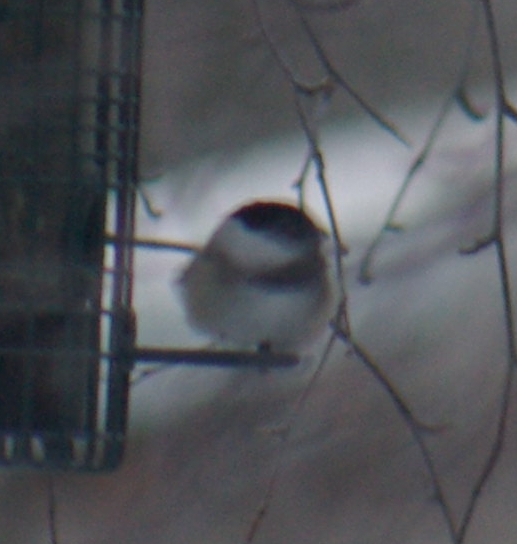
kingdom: Animalia
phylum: Chordata
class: Aves
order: Passeriformes
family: Paridae
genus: Poecile
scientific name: Poecile atricapillus
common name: Black-capped chickadee
